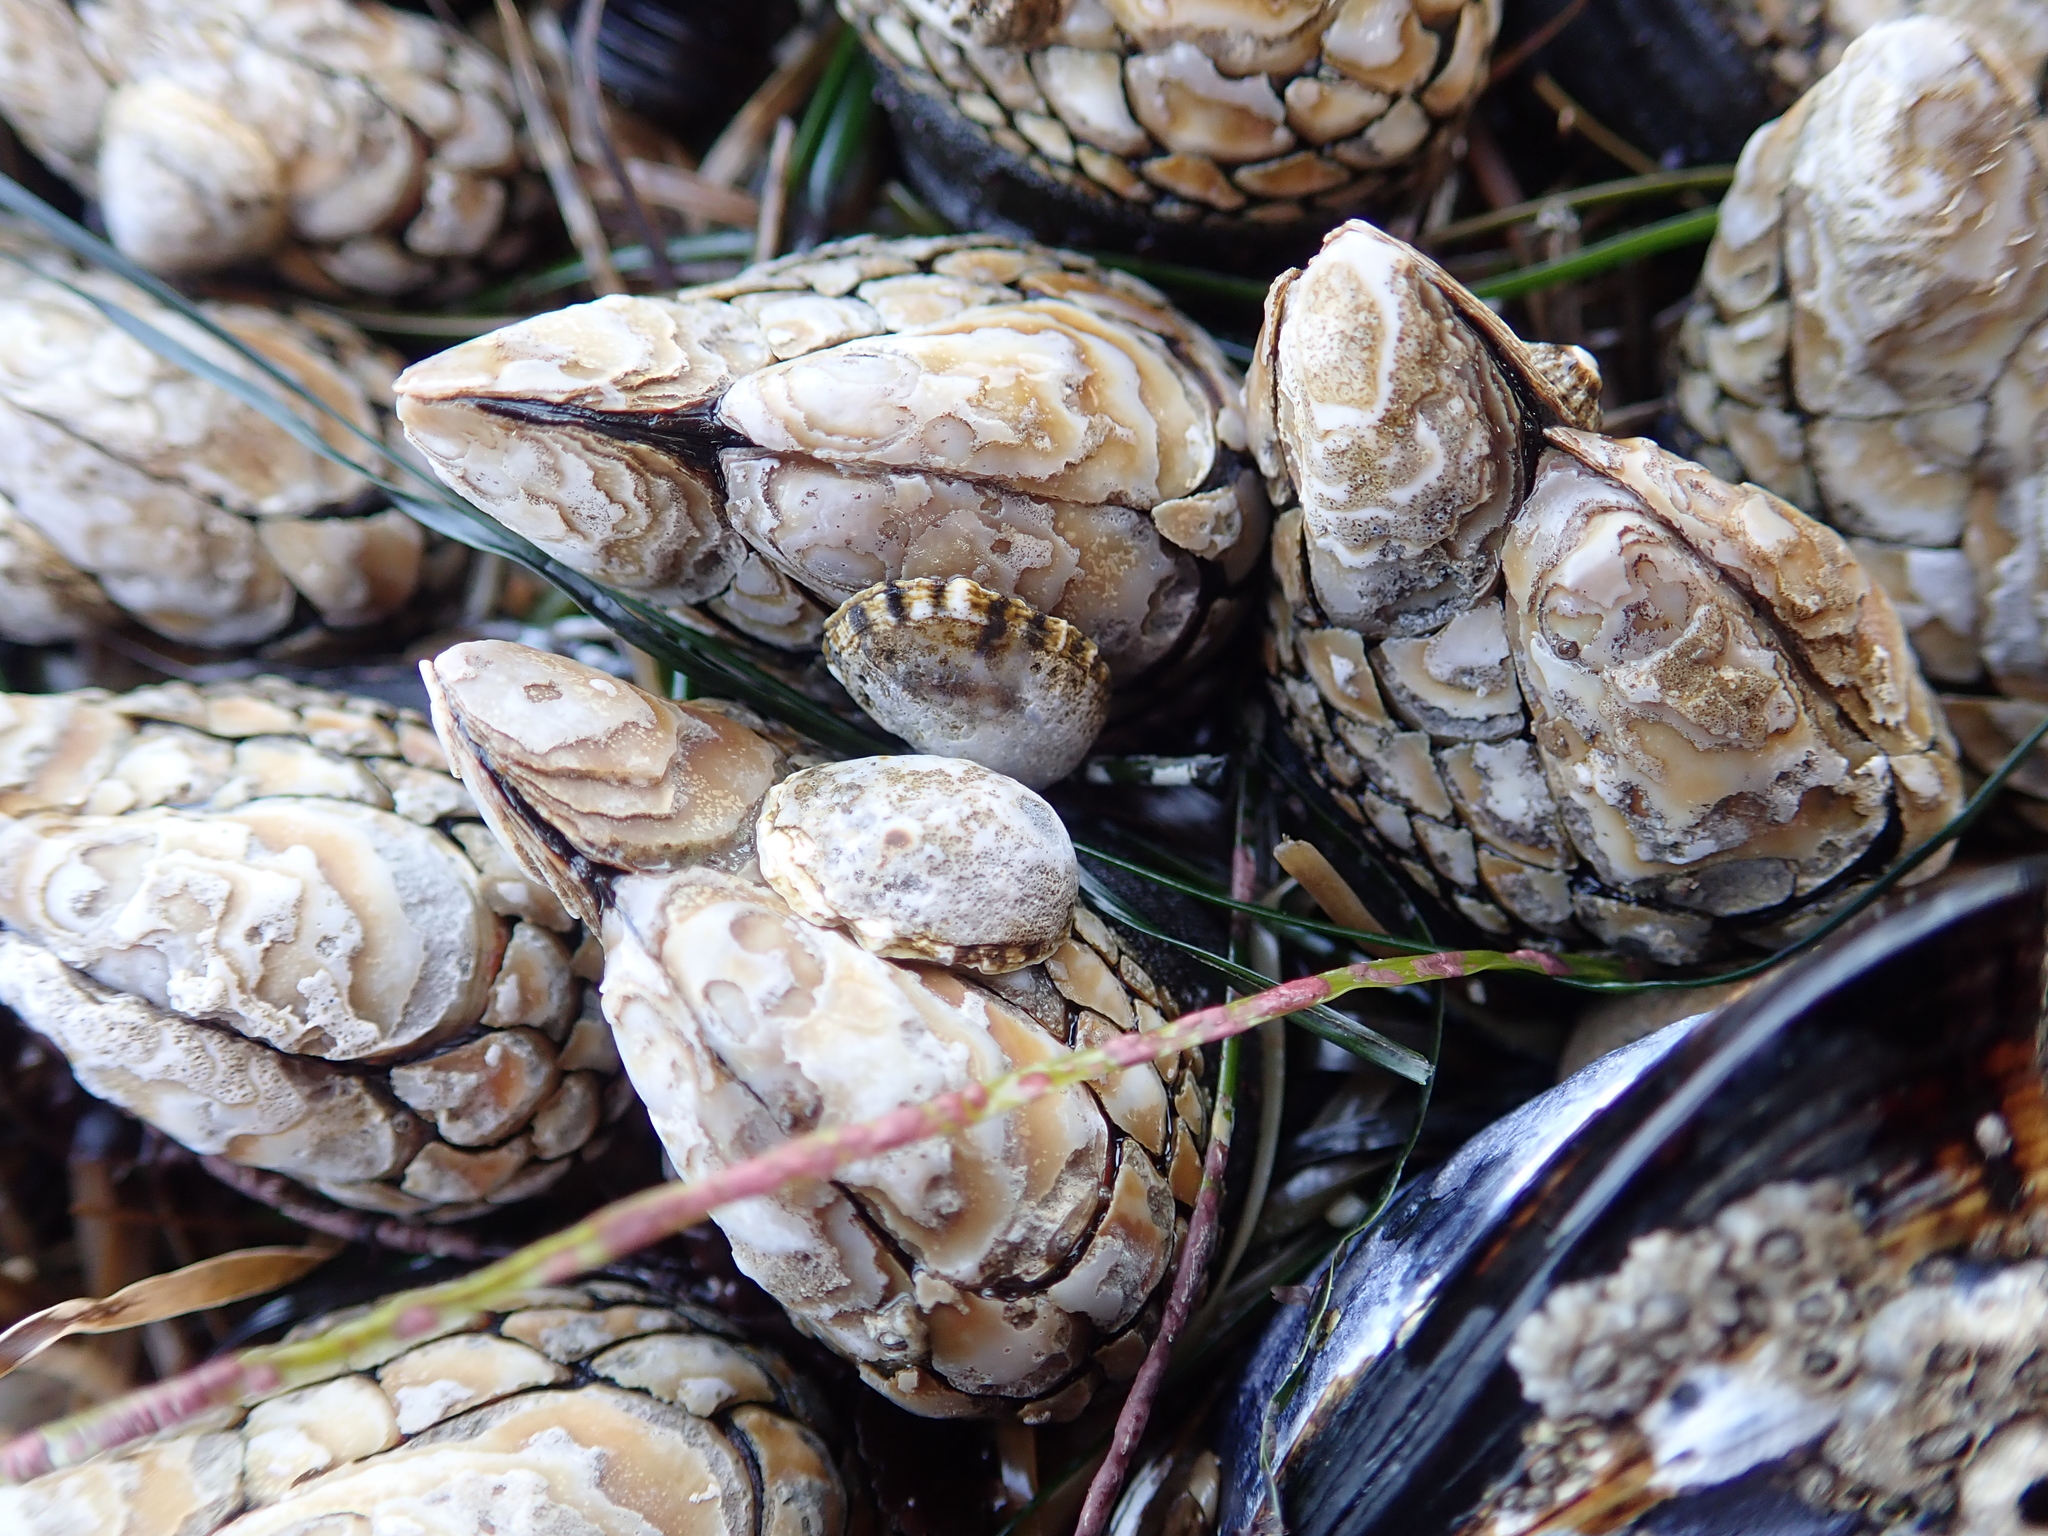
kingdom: Animalia
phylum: Arthropoda
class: Maxillopoda
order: Pedunculata
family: Pollicipedidae
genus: Pollicipes
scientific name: Pollicipes polymerus
